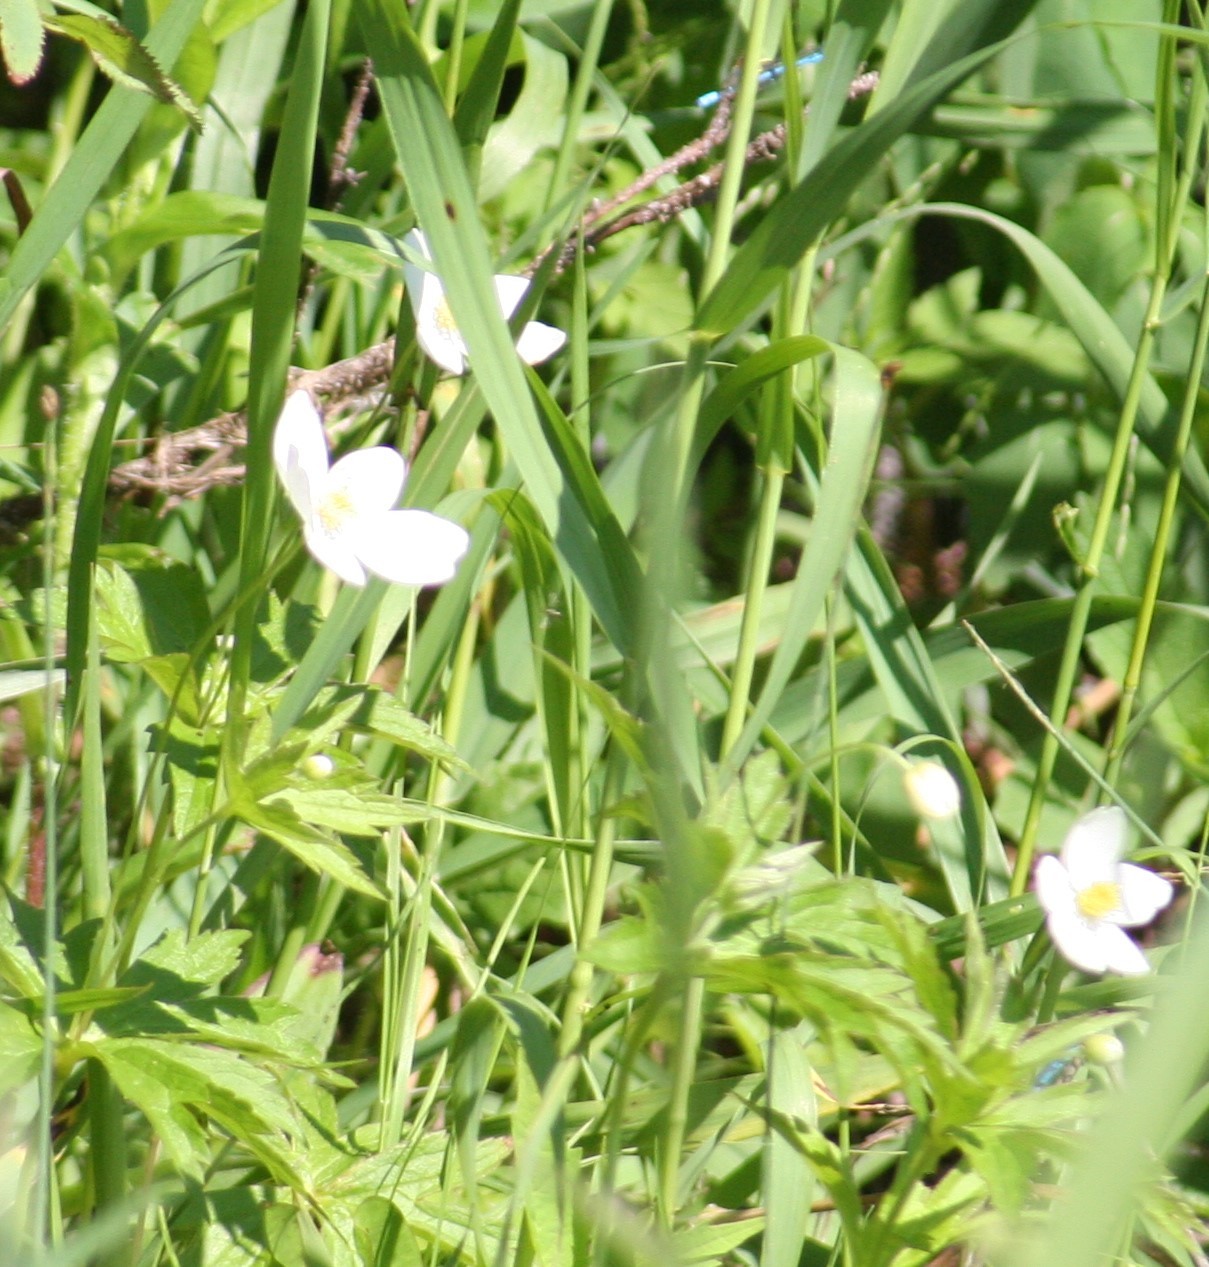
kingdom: Plantae
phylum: Tracheophyta
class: Magnoliopsida
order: Ranunculales
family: Ranunculaceae
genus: Anemonastrum
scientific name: Anemonastrum canadense
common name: Canada anemone
